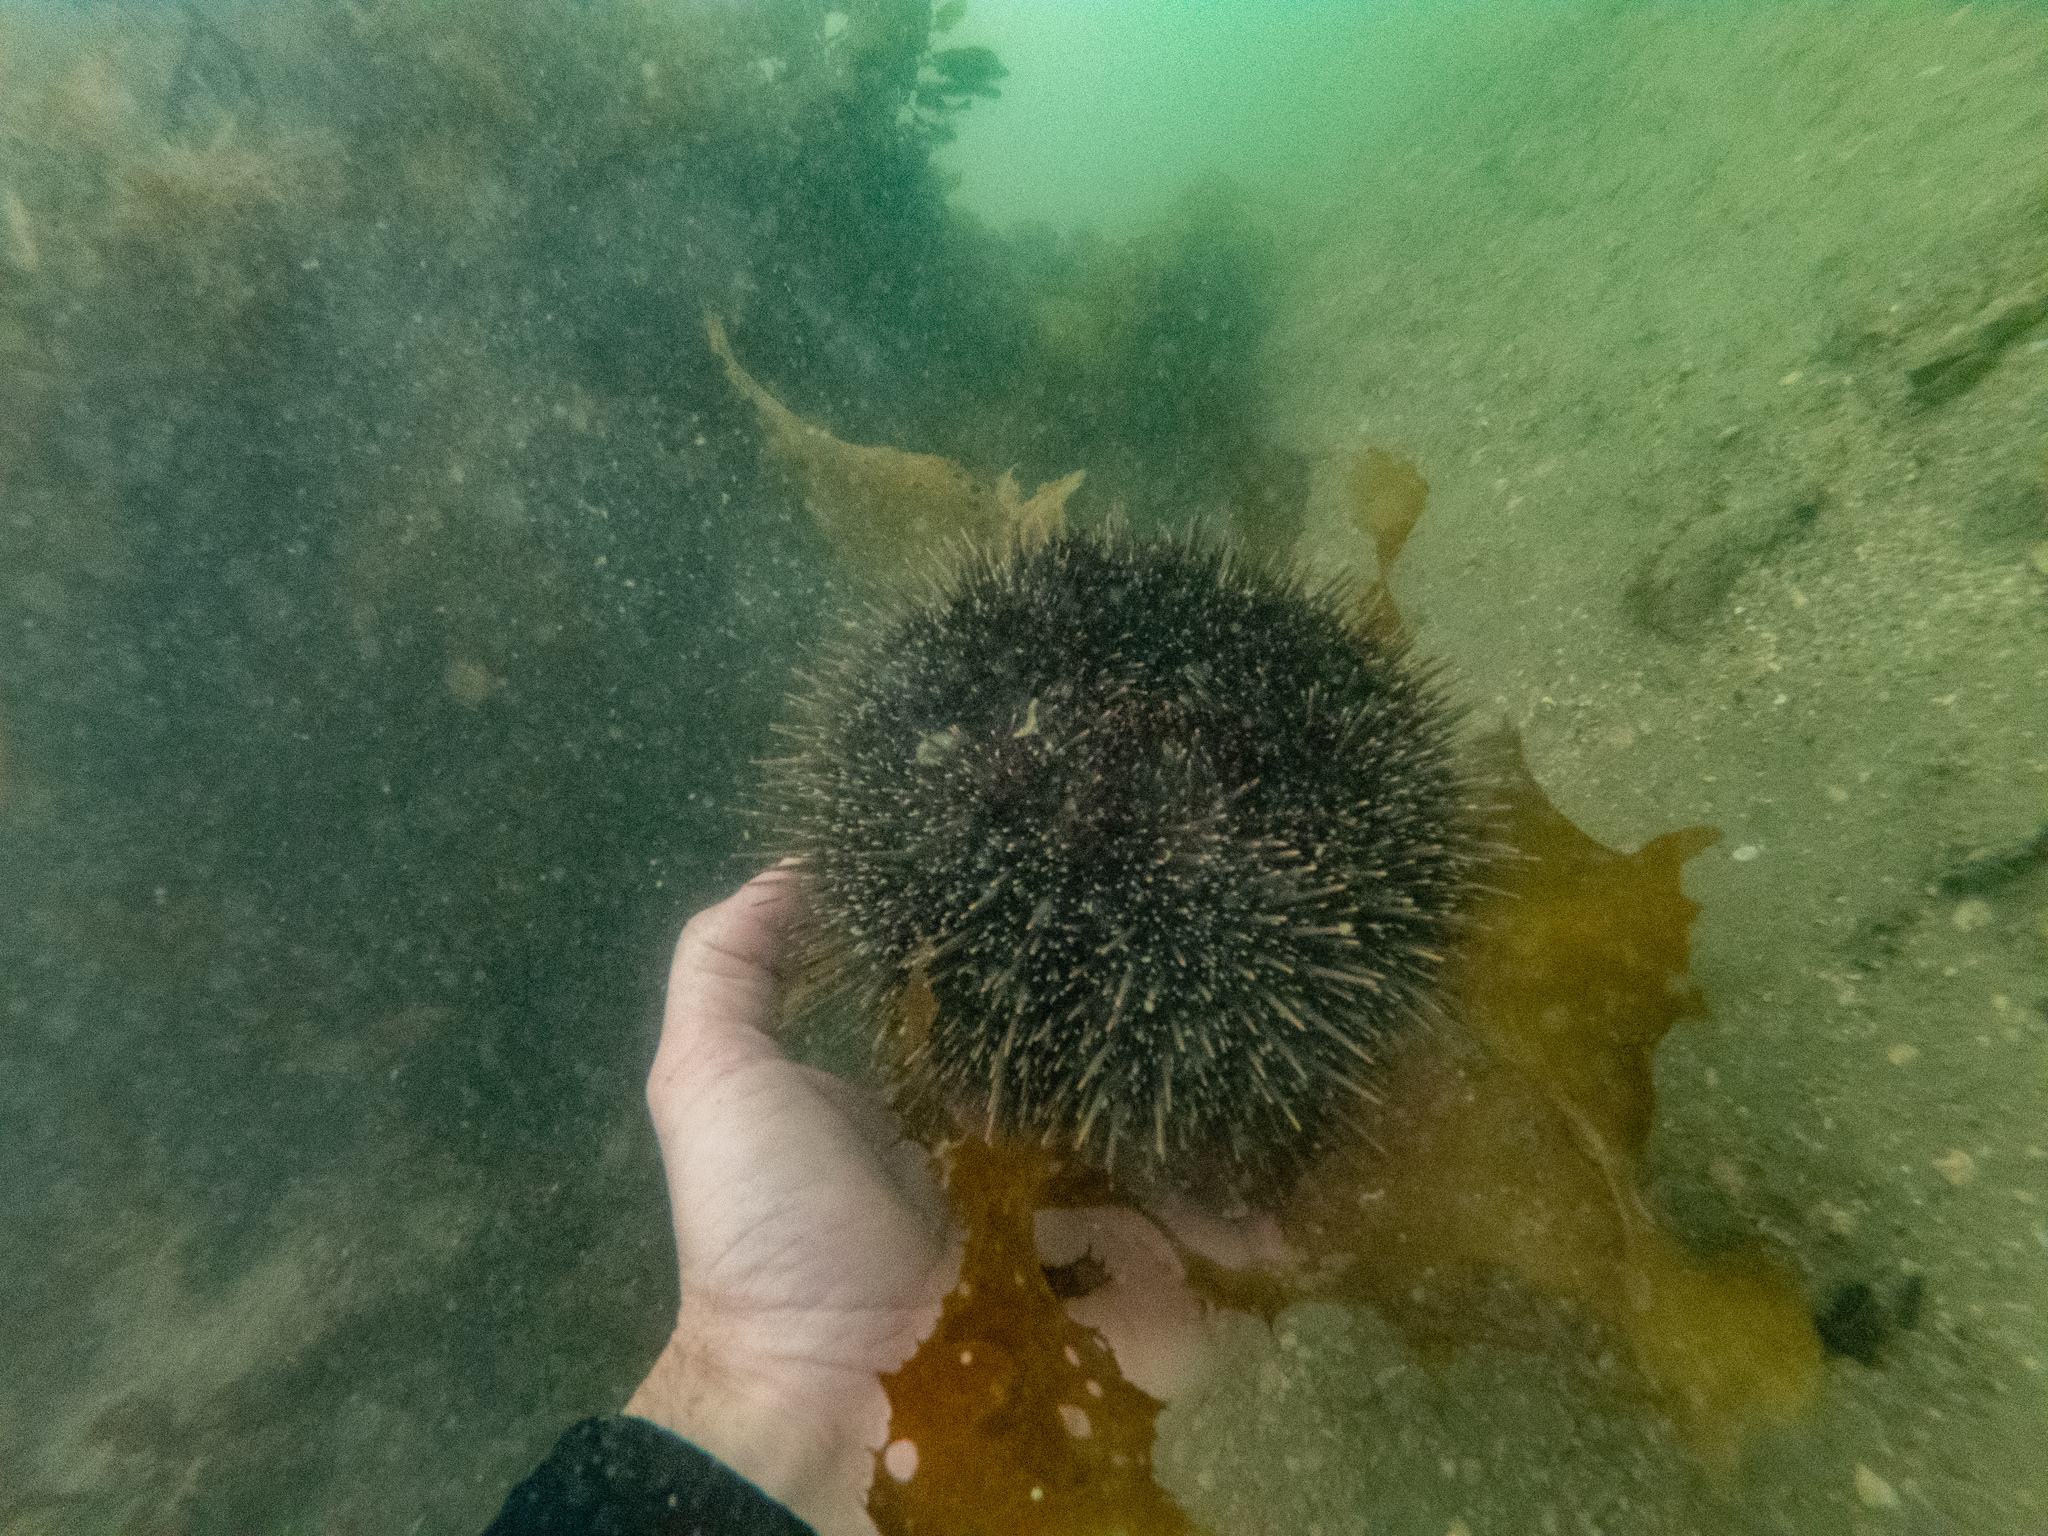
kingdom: Animalia
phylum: Echinodermata
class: Echinoidea
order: Camarodonta
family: Echinometridae
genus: Evechinus
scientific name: Evechinus chloroticus
